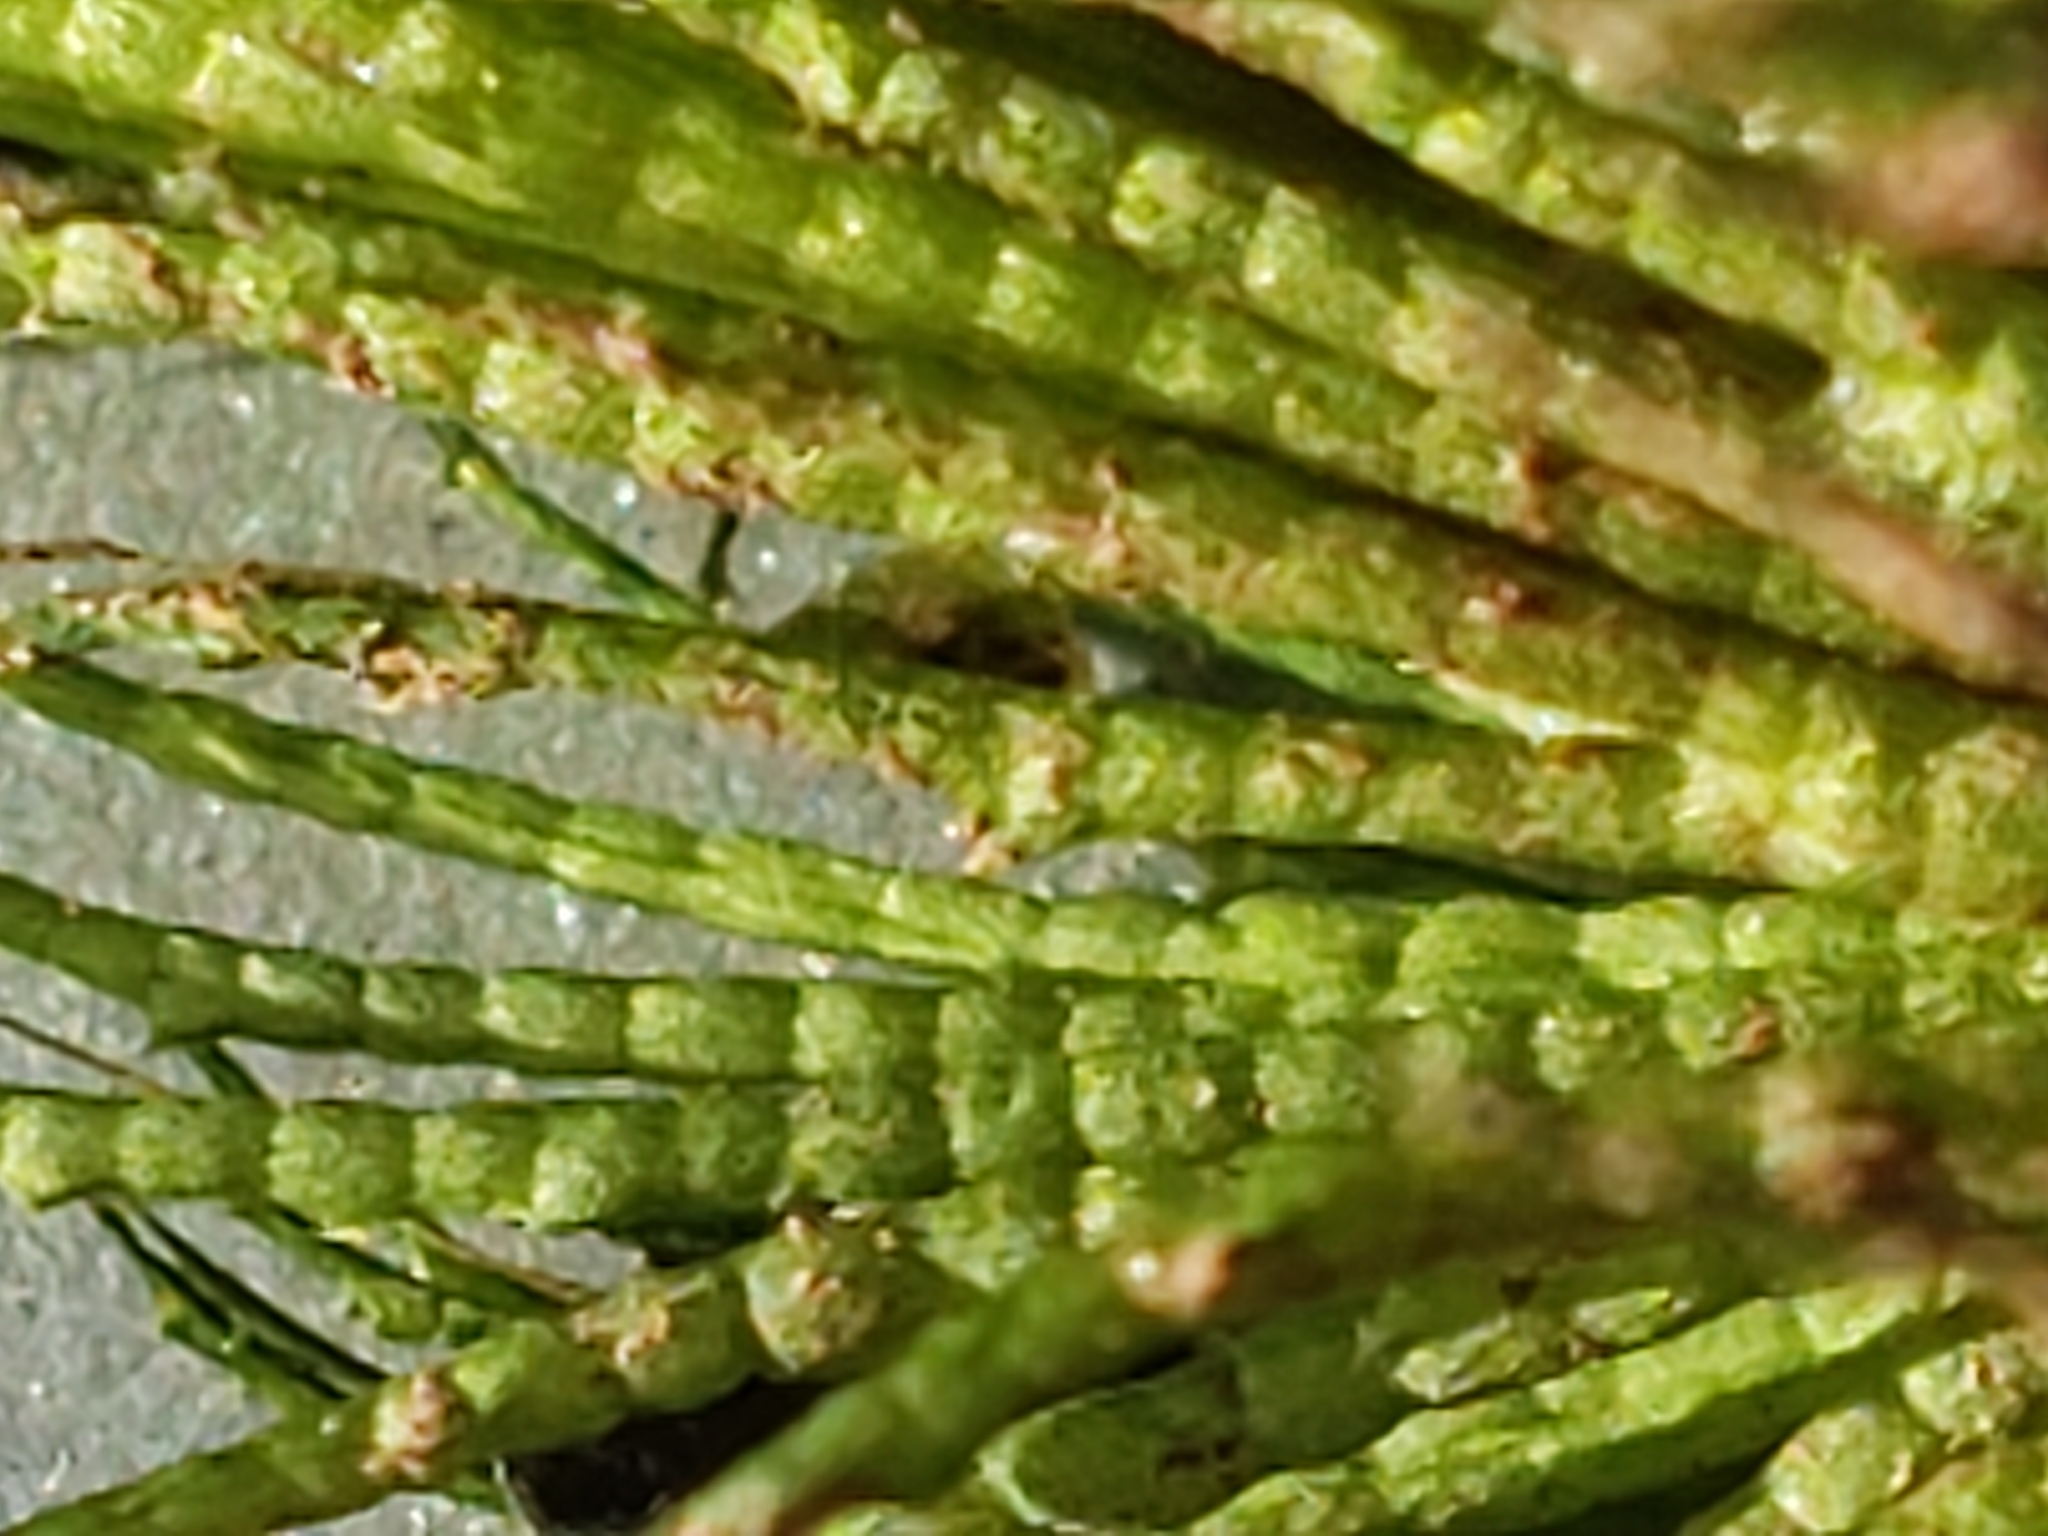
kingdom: Plantae
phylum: Tracheophyta
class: Magnoliopsida
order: Ceratophyllales
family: Ceratophyllaceae
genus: Ceratophyllum
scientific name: Ceratophyllum demersum
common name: Rigid hornwort
